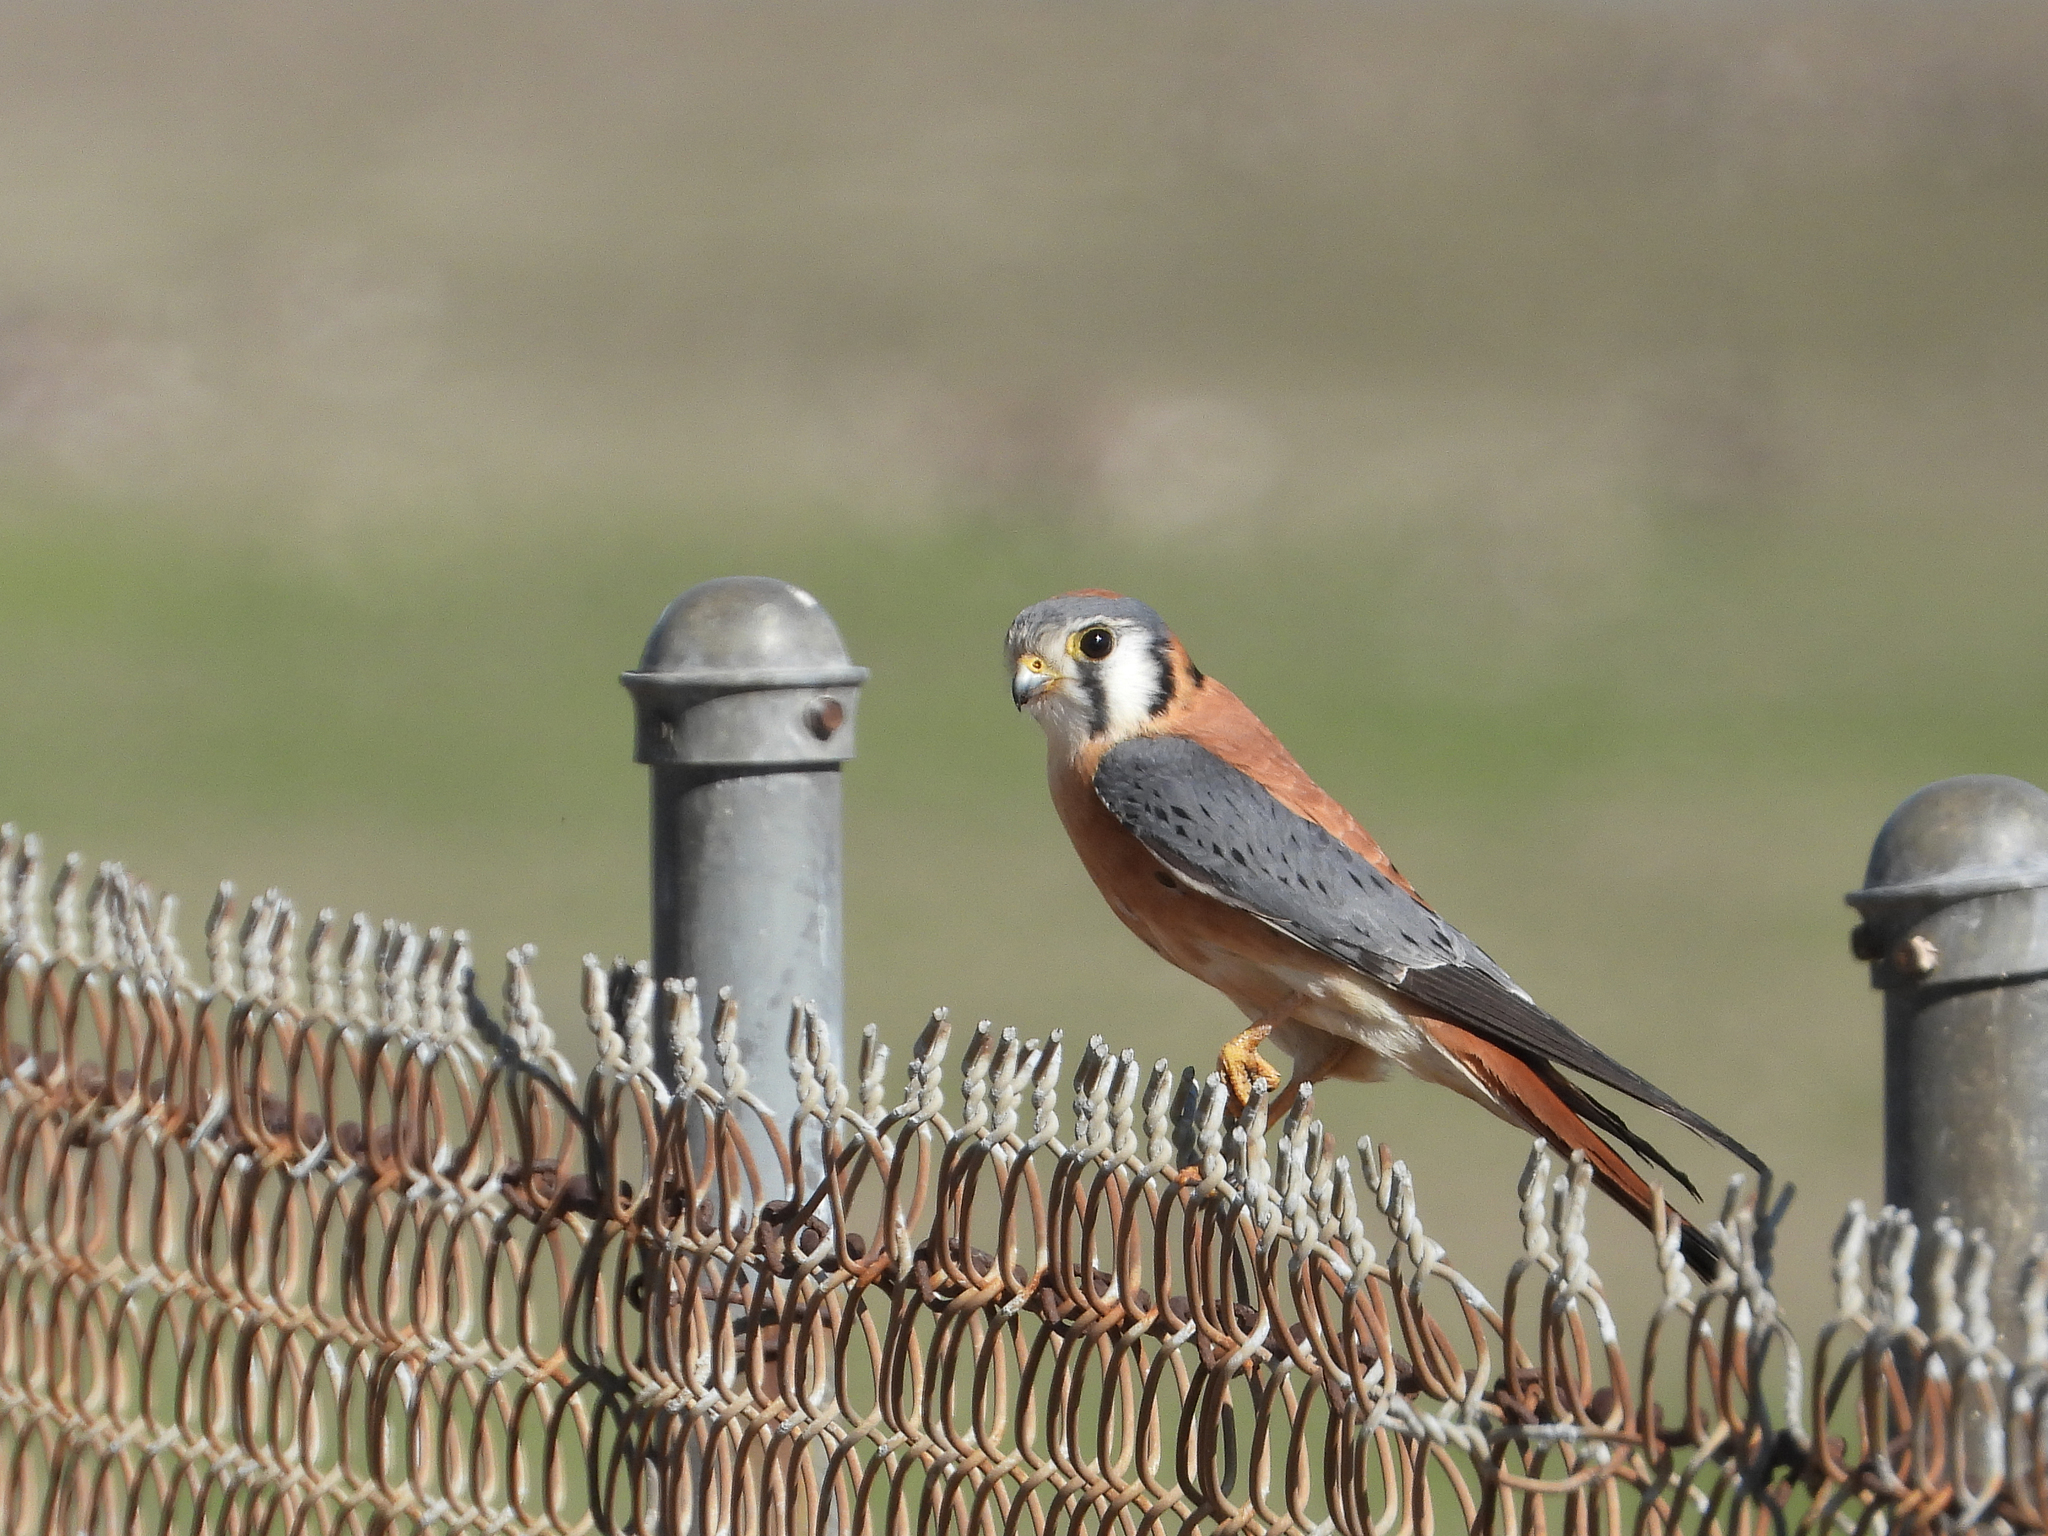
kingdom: Animalia
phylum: Chordata
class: Aves
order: Falconiformes
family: Falconidae
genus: Falco
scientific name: Falco sparverius
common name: American kestrel
